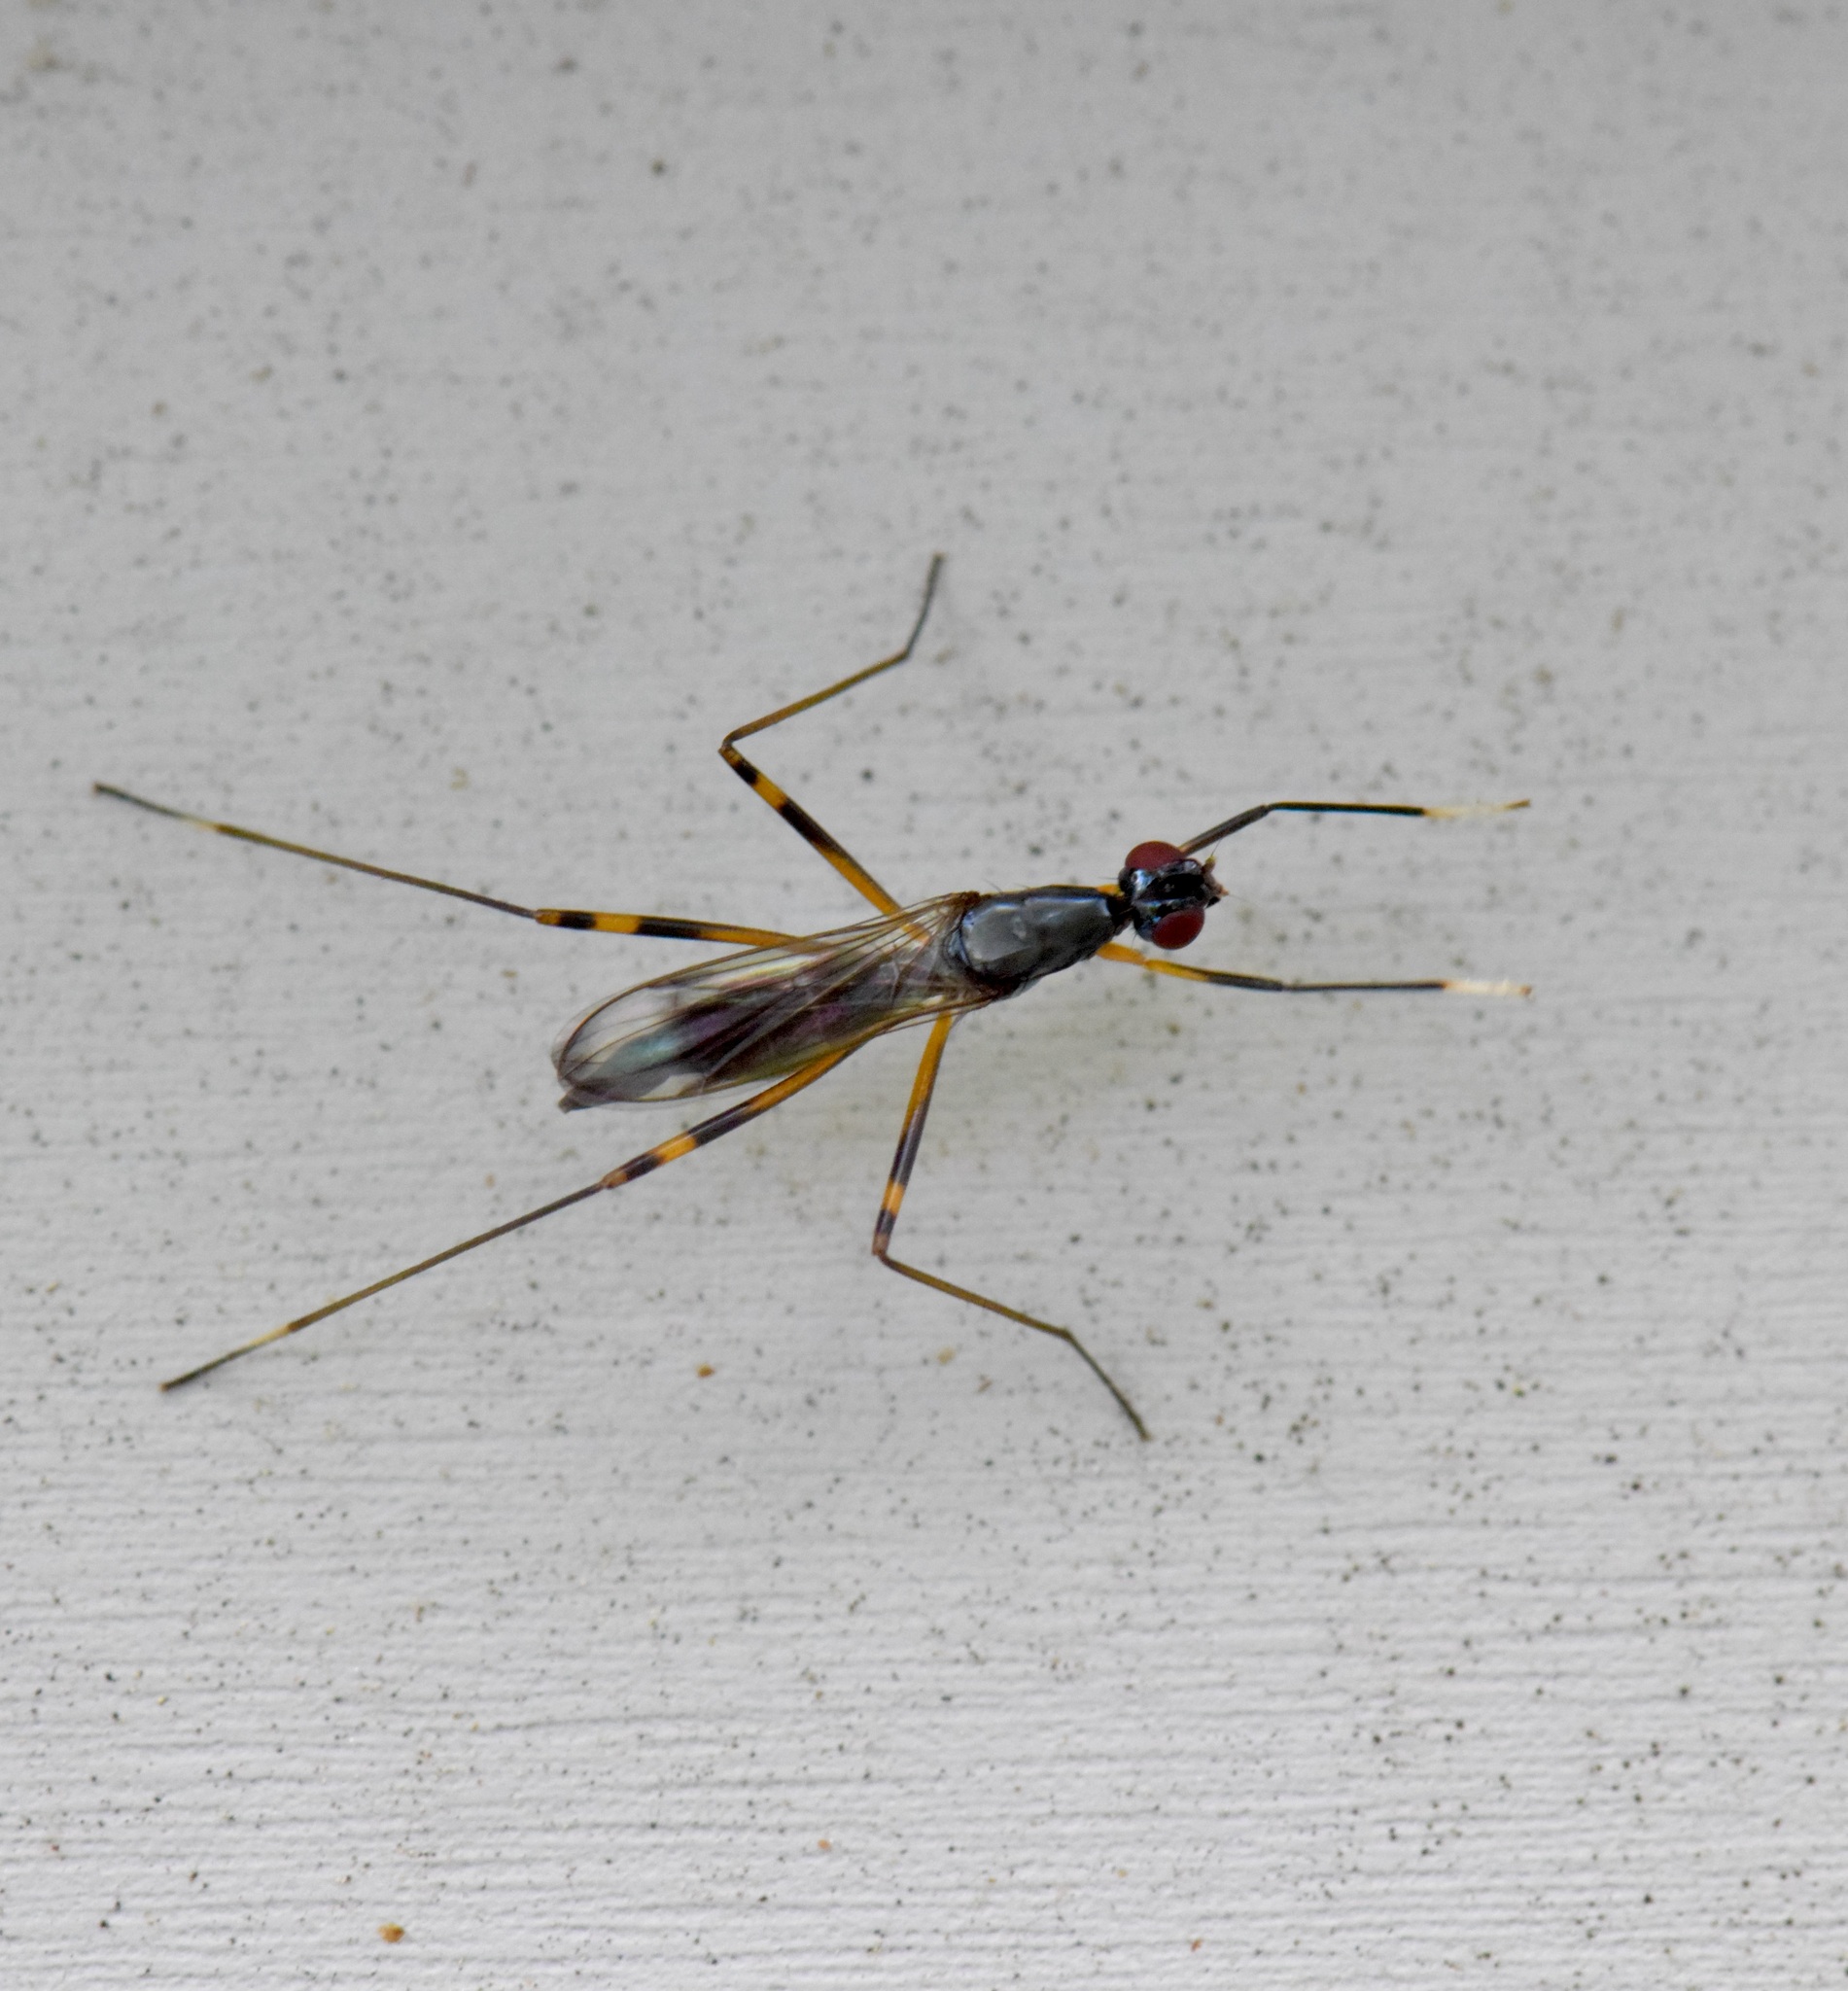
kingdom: Animalia
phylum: Arthropoda
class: Insecta
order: Diptera
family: Micropezidae
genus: Rainieria
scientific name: Rainieria antennaepes
